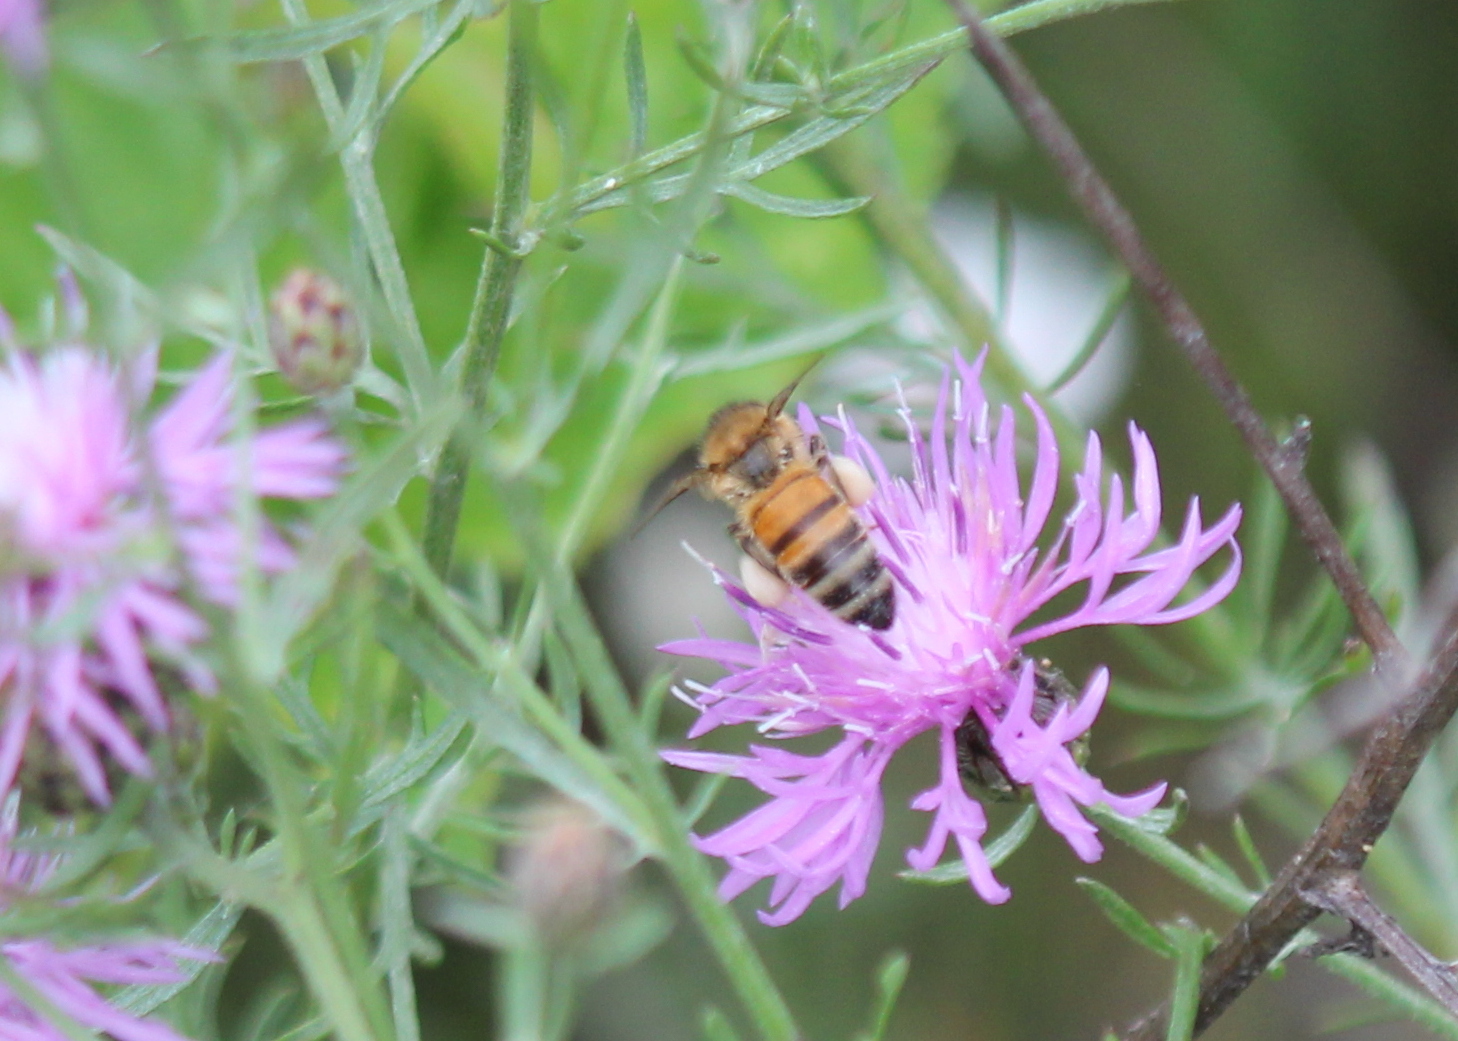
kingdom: Animalia
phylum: Arthropoda
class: Insecta
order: Hymenoptera
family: Apidae
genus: Apis
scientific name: Apis mellifera
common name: Honey bee
